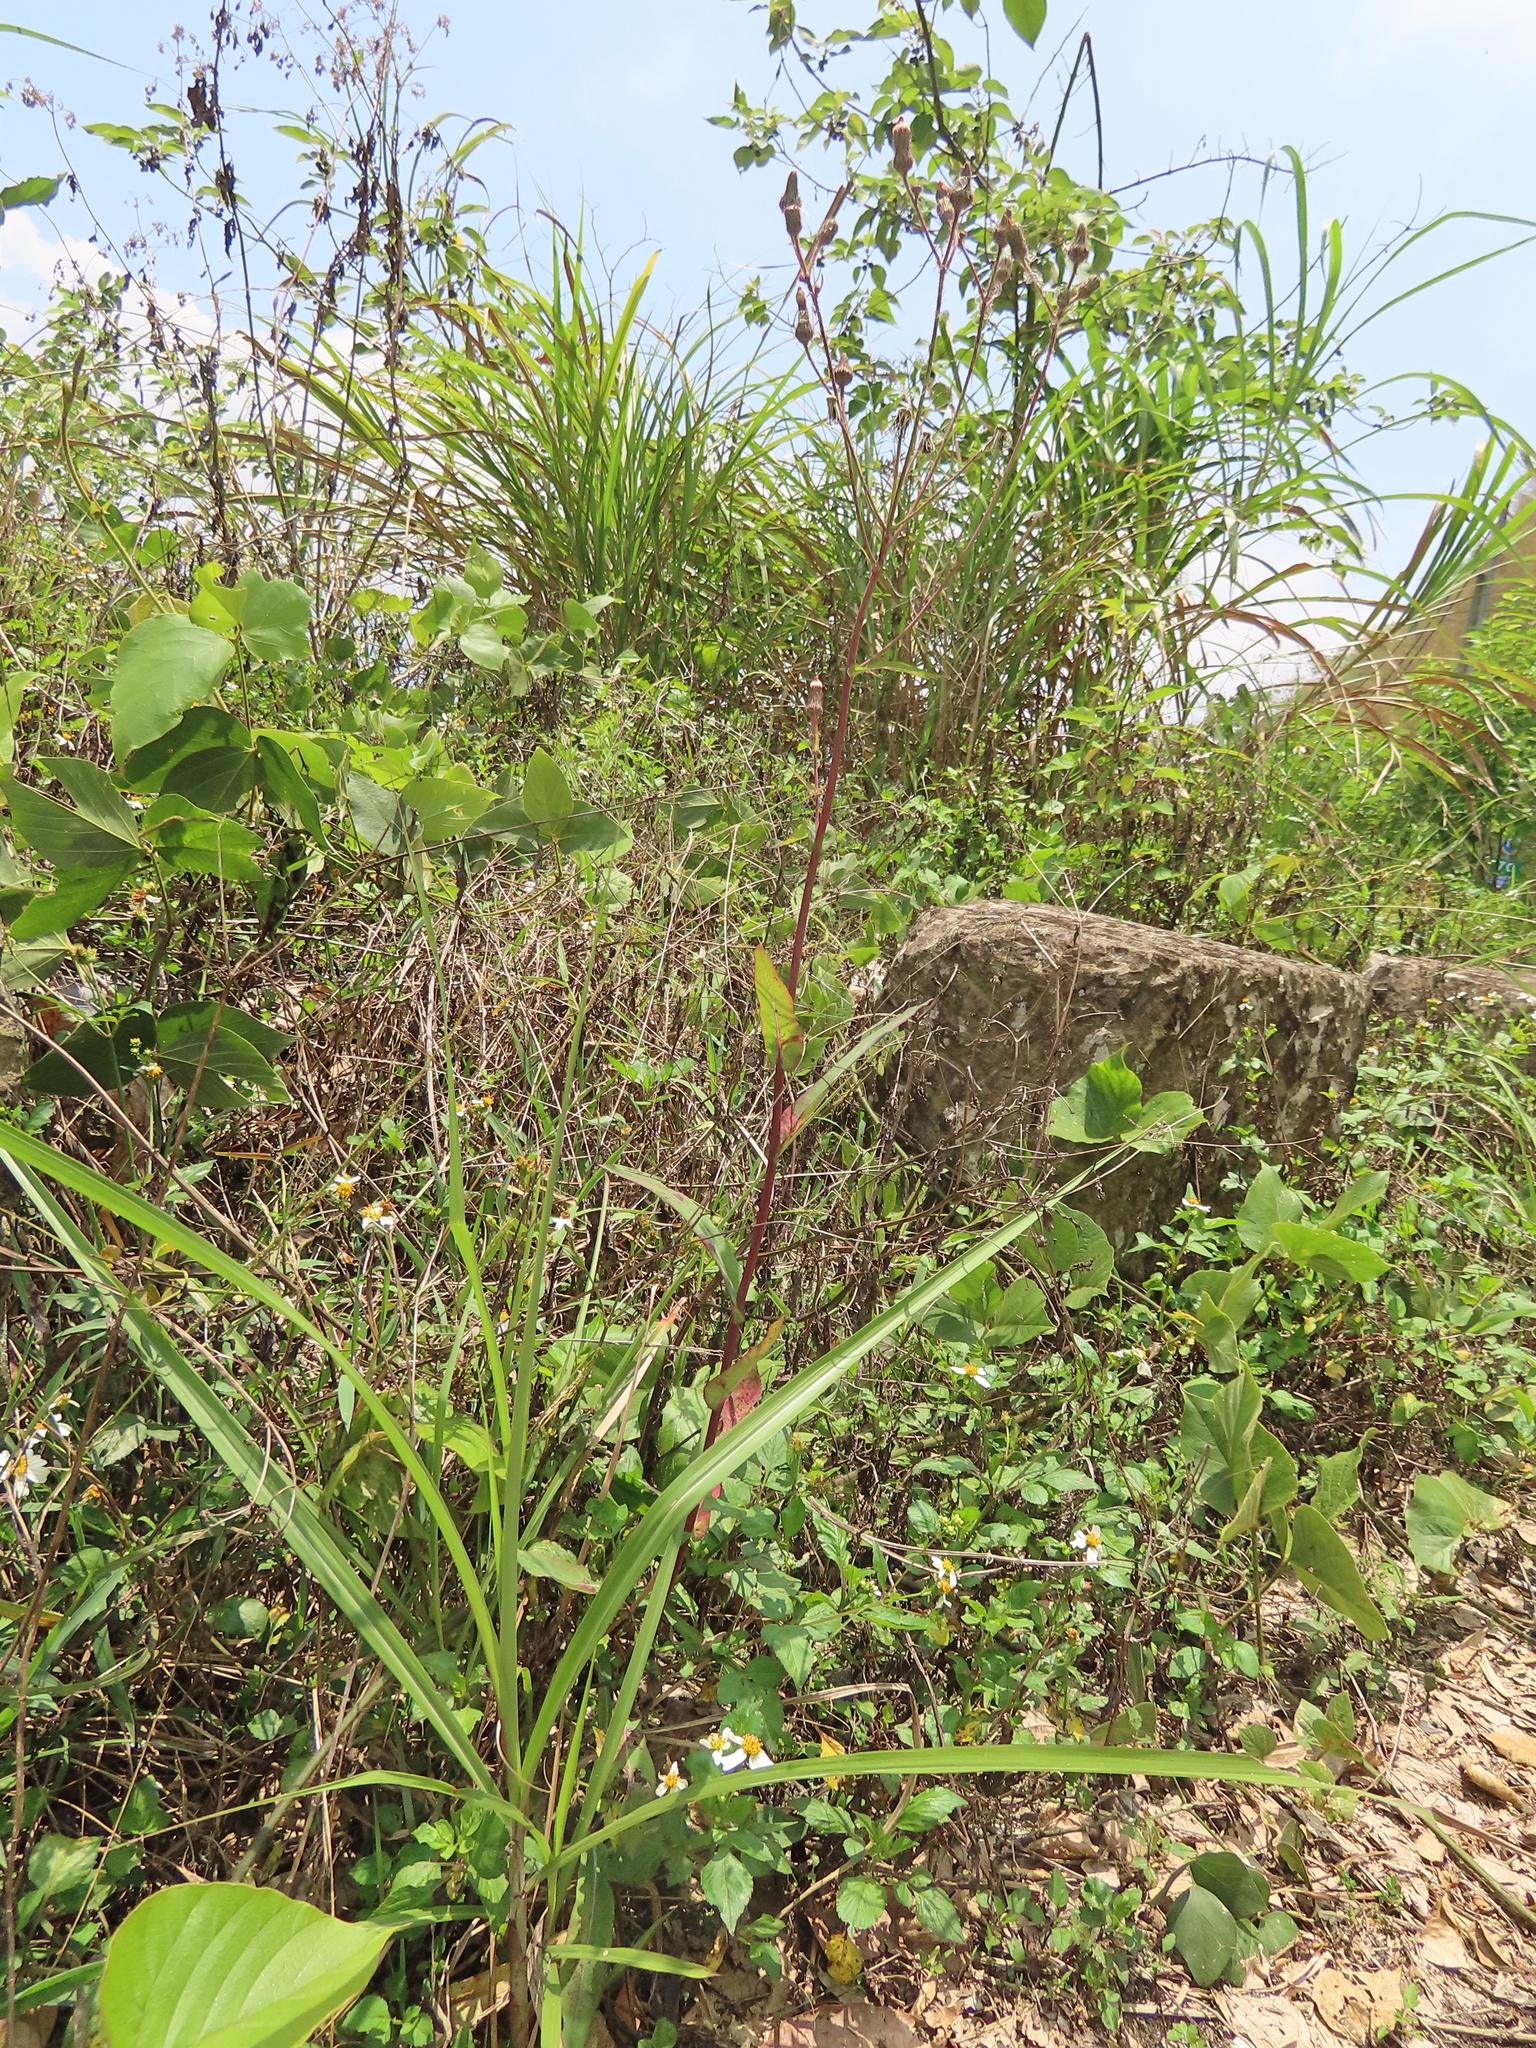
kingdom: Plantae
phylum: Tracheophyta
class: Magnoliopsida
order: Asterales
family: Asteraceae
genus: Sonchus
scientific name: Sonchus arvensis
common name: Perennial sow-thistle
